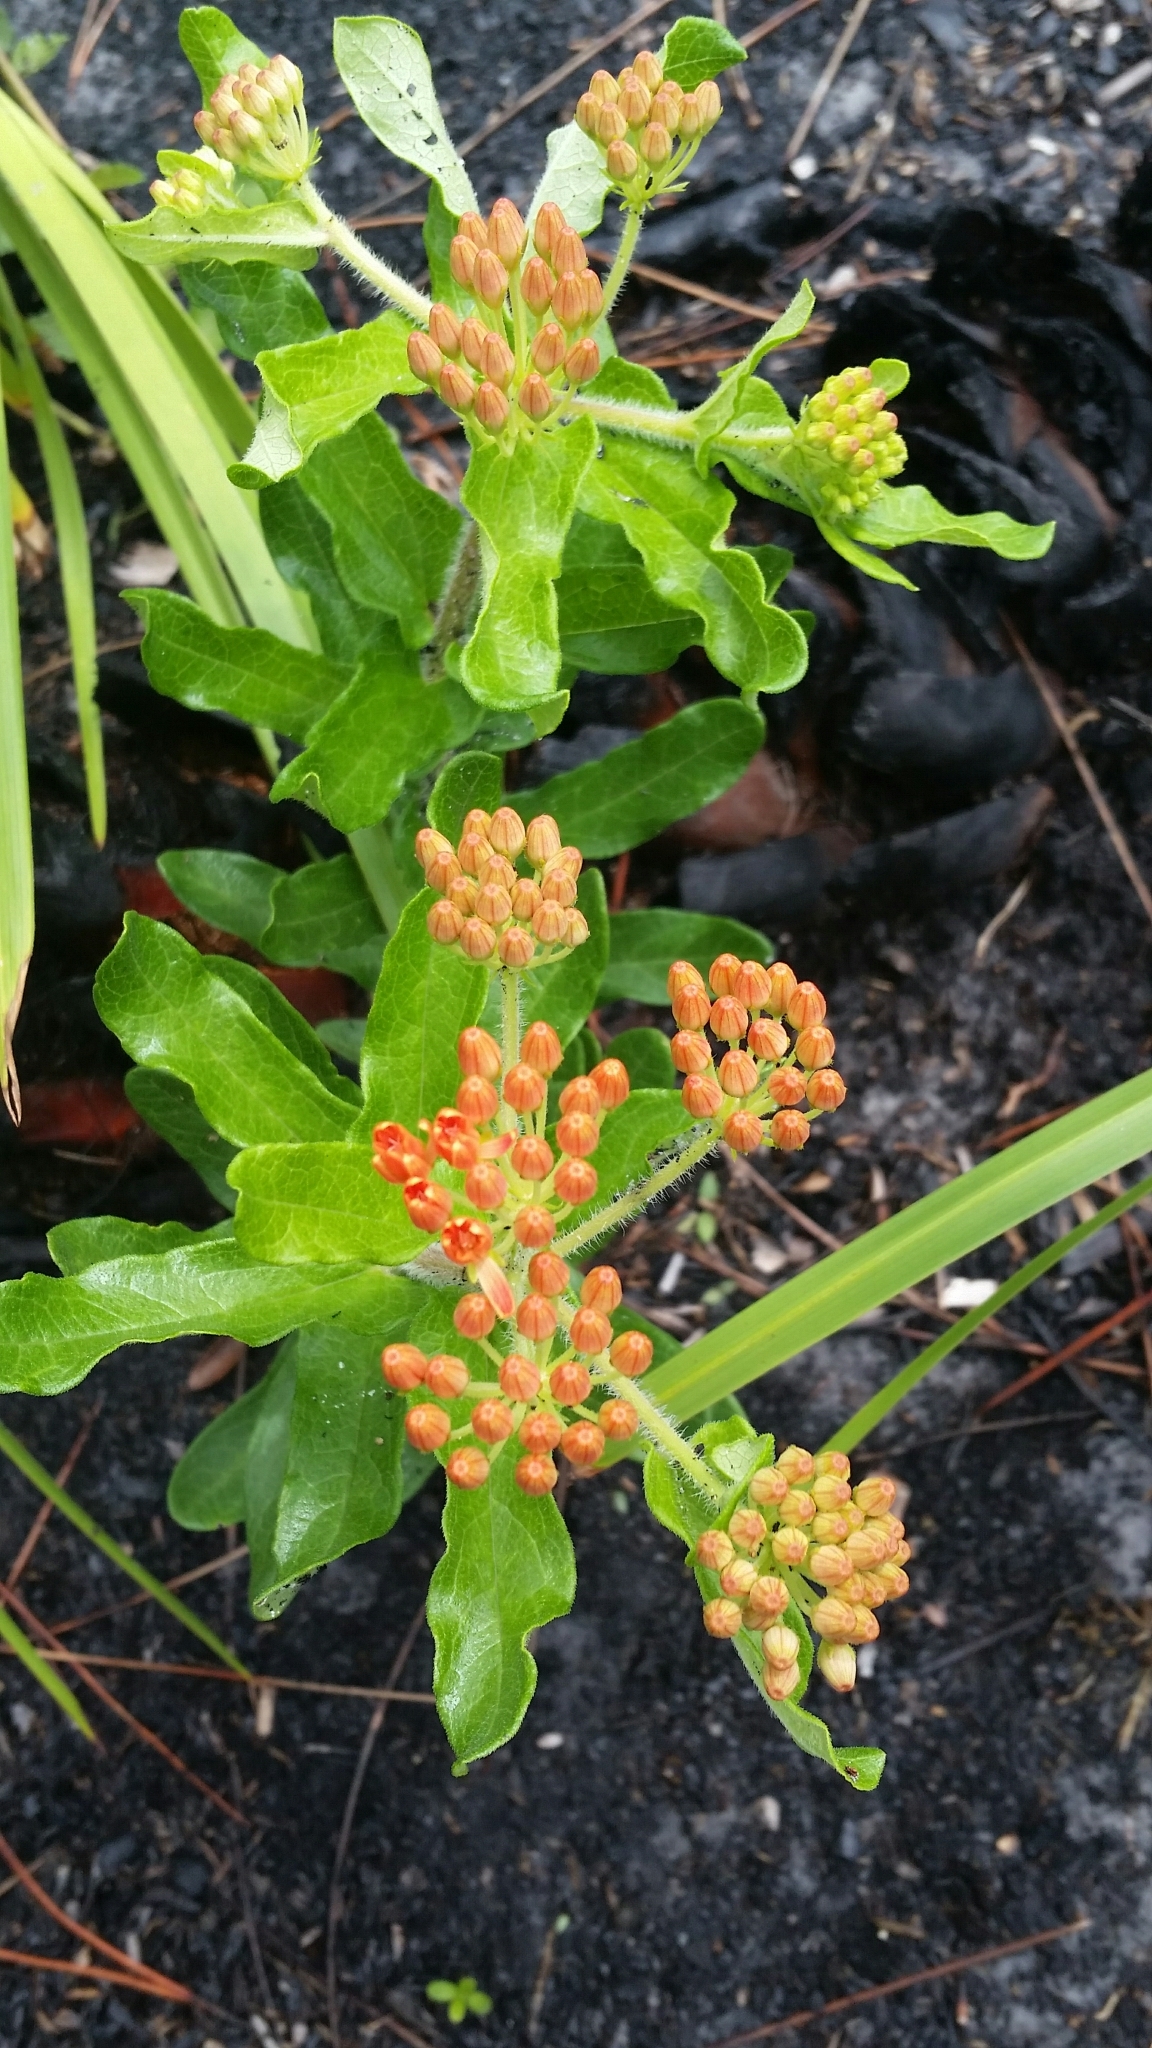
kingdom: Plantae
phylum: Tracheophyta
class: Magnoliopsida
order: Gentianales
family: Apocynaceae
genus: Asclepias
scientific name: Asclepias tuberosa
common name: Butterfly milkweed
